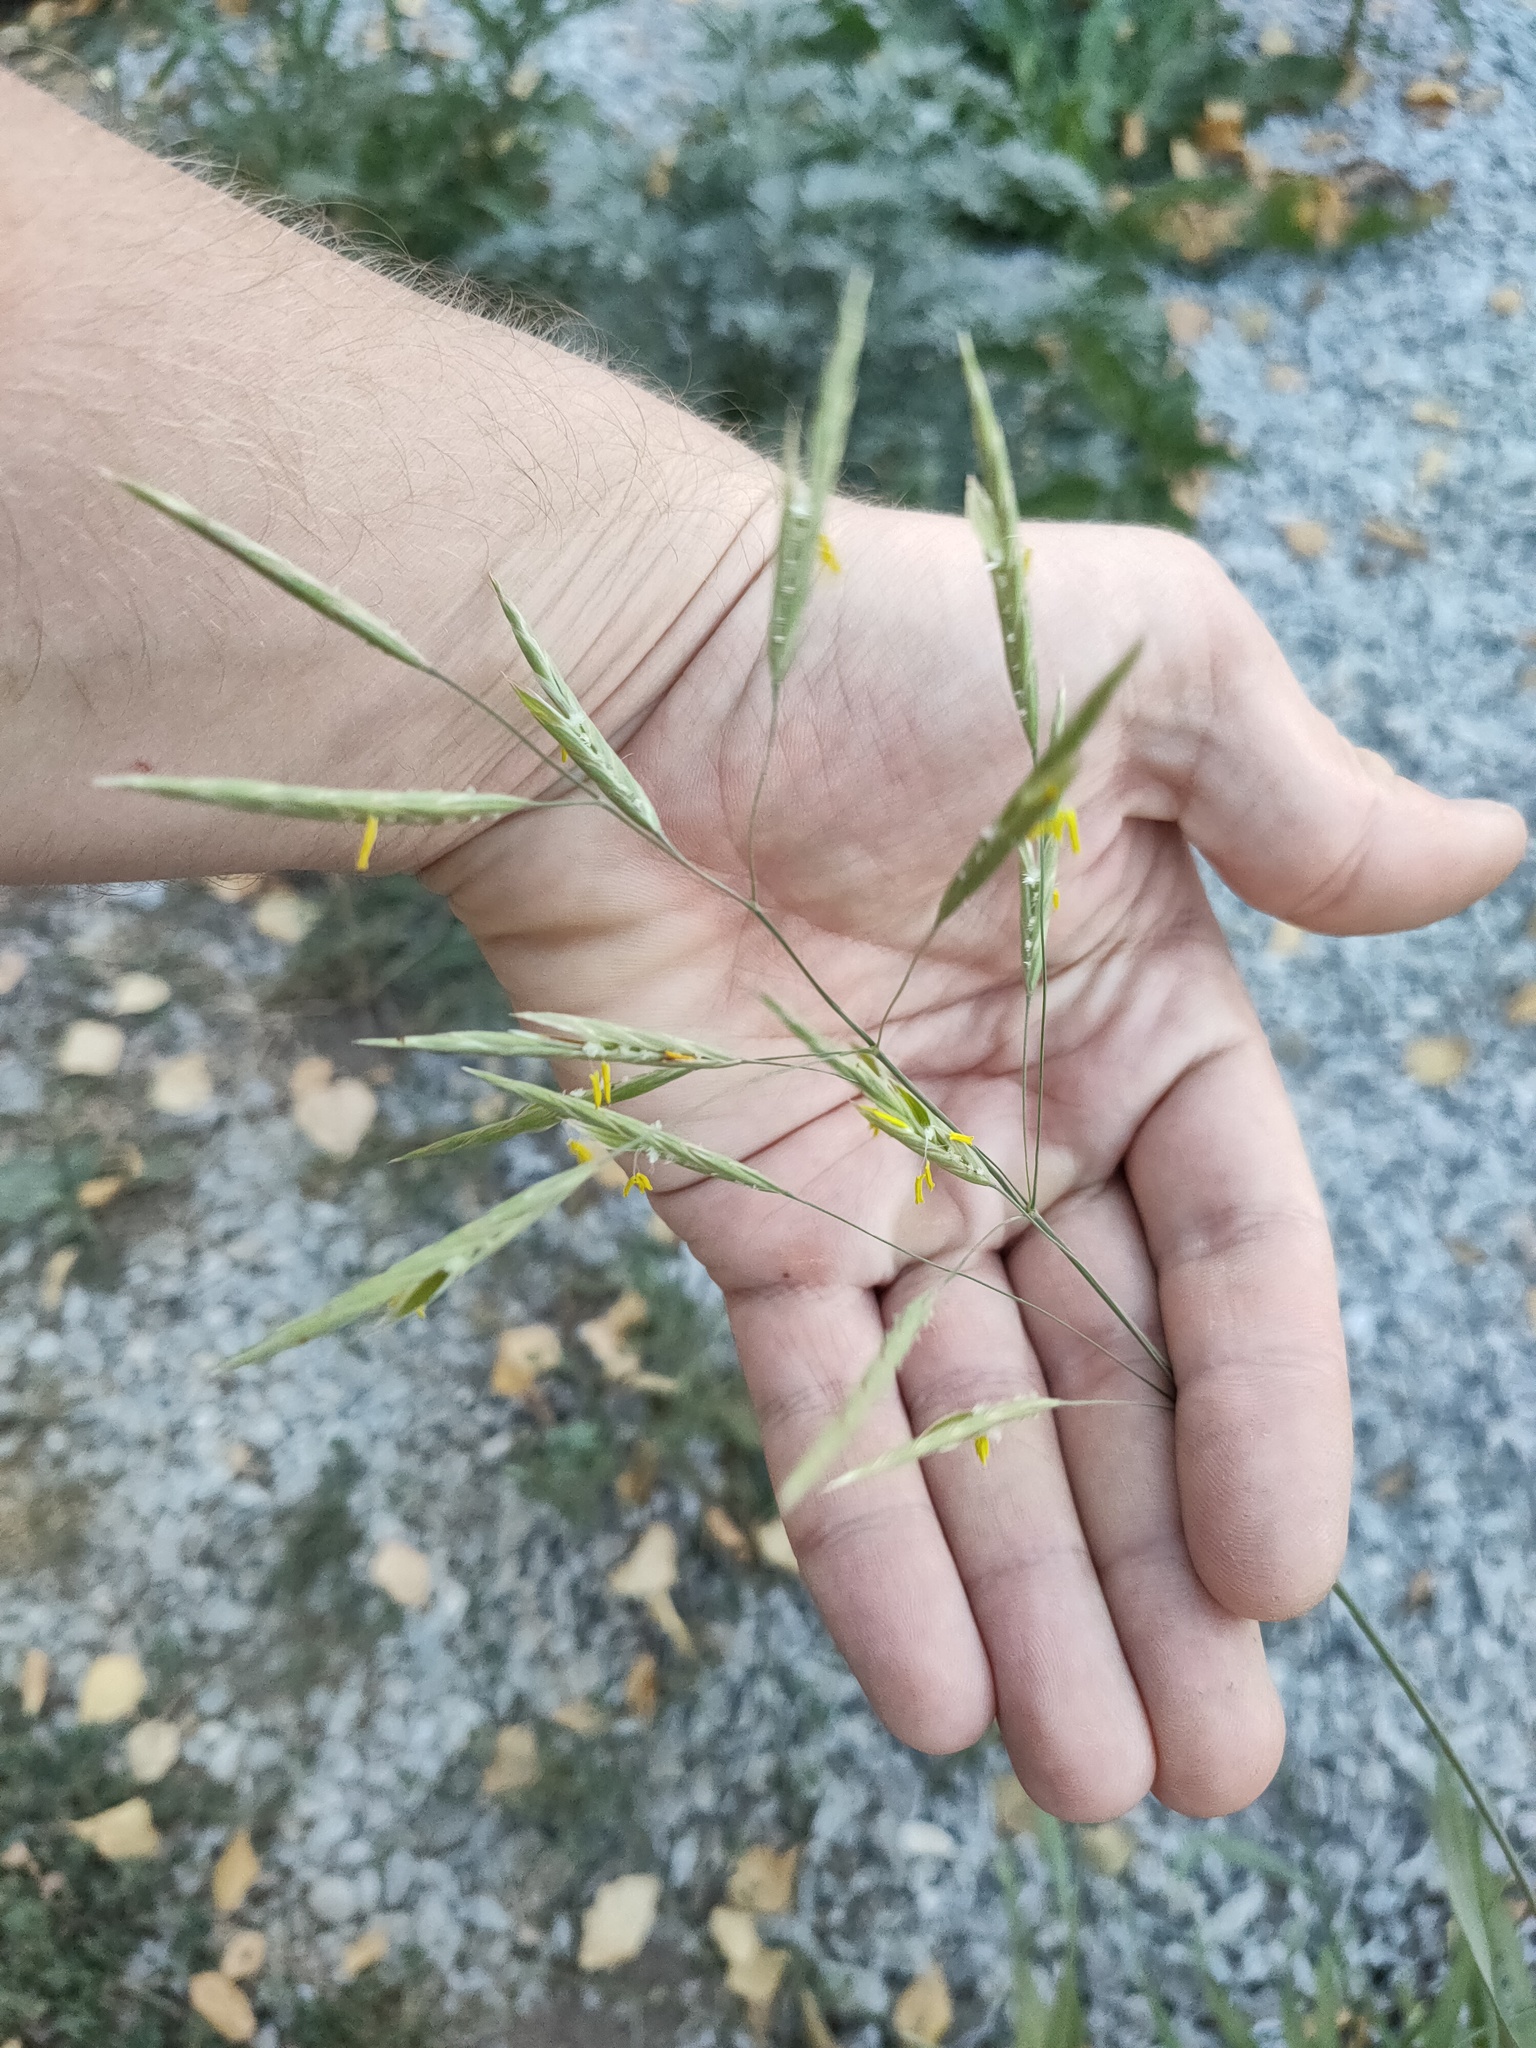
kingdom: Plantae
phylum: Tracheophyta
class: Liliopsida
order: Poales
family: Poaceae
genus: Bromus
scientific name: Bromus inermis
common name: Smooth brome
